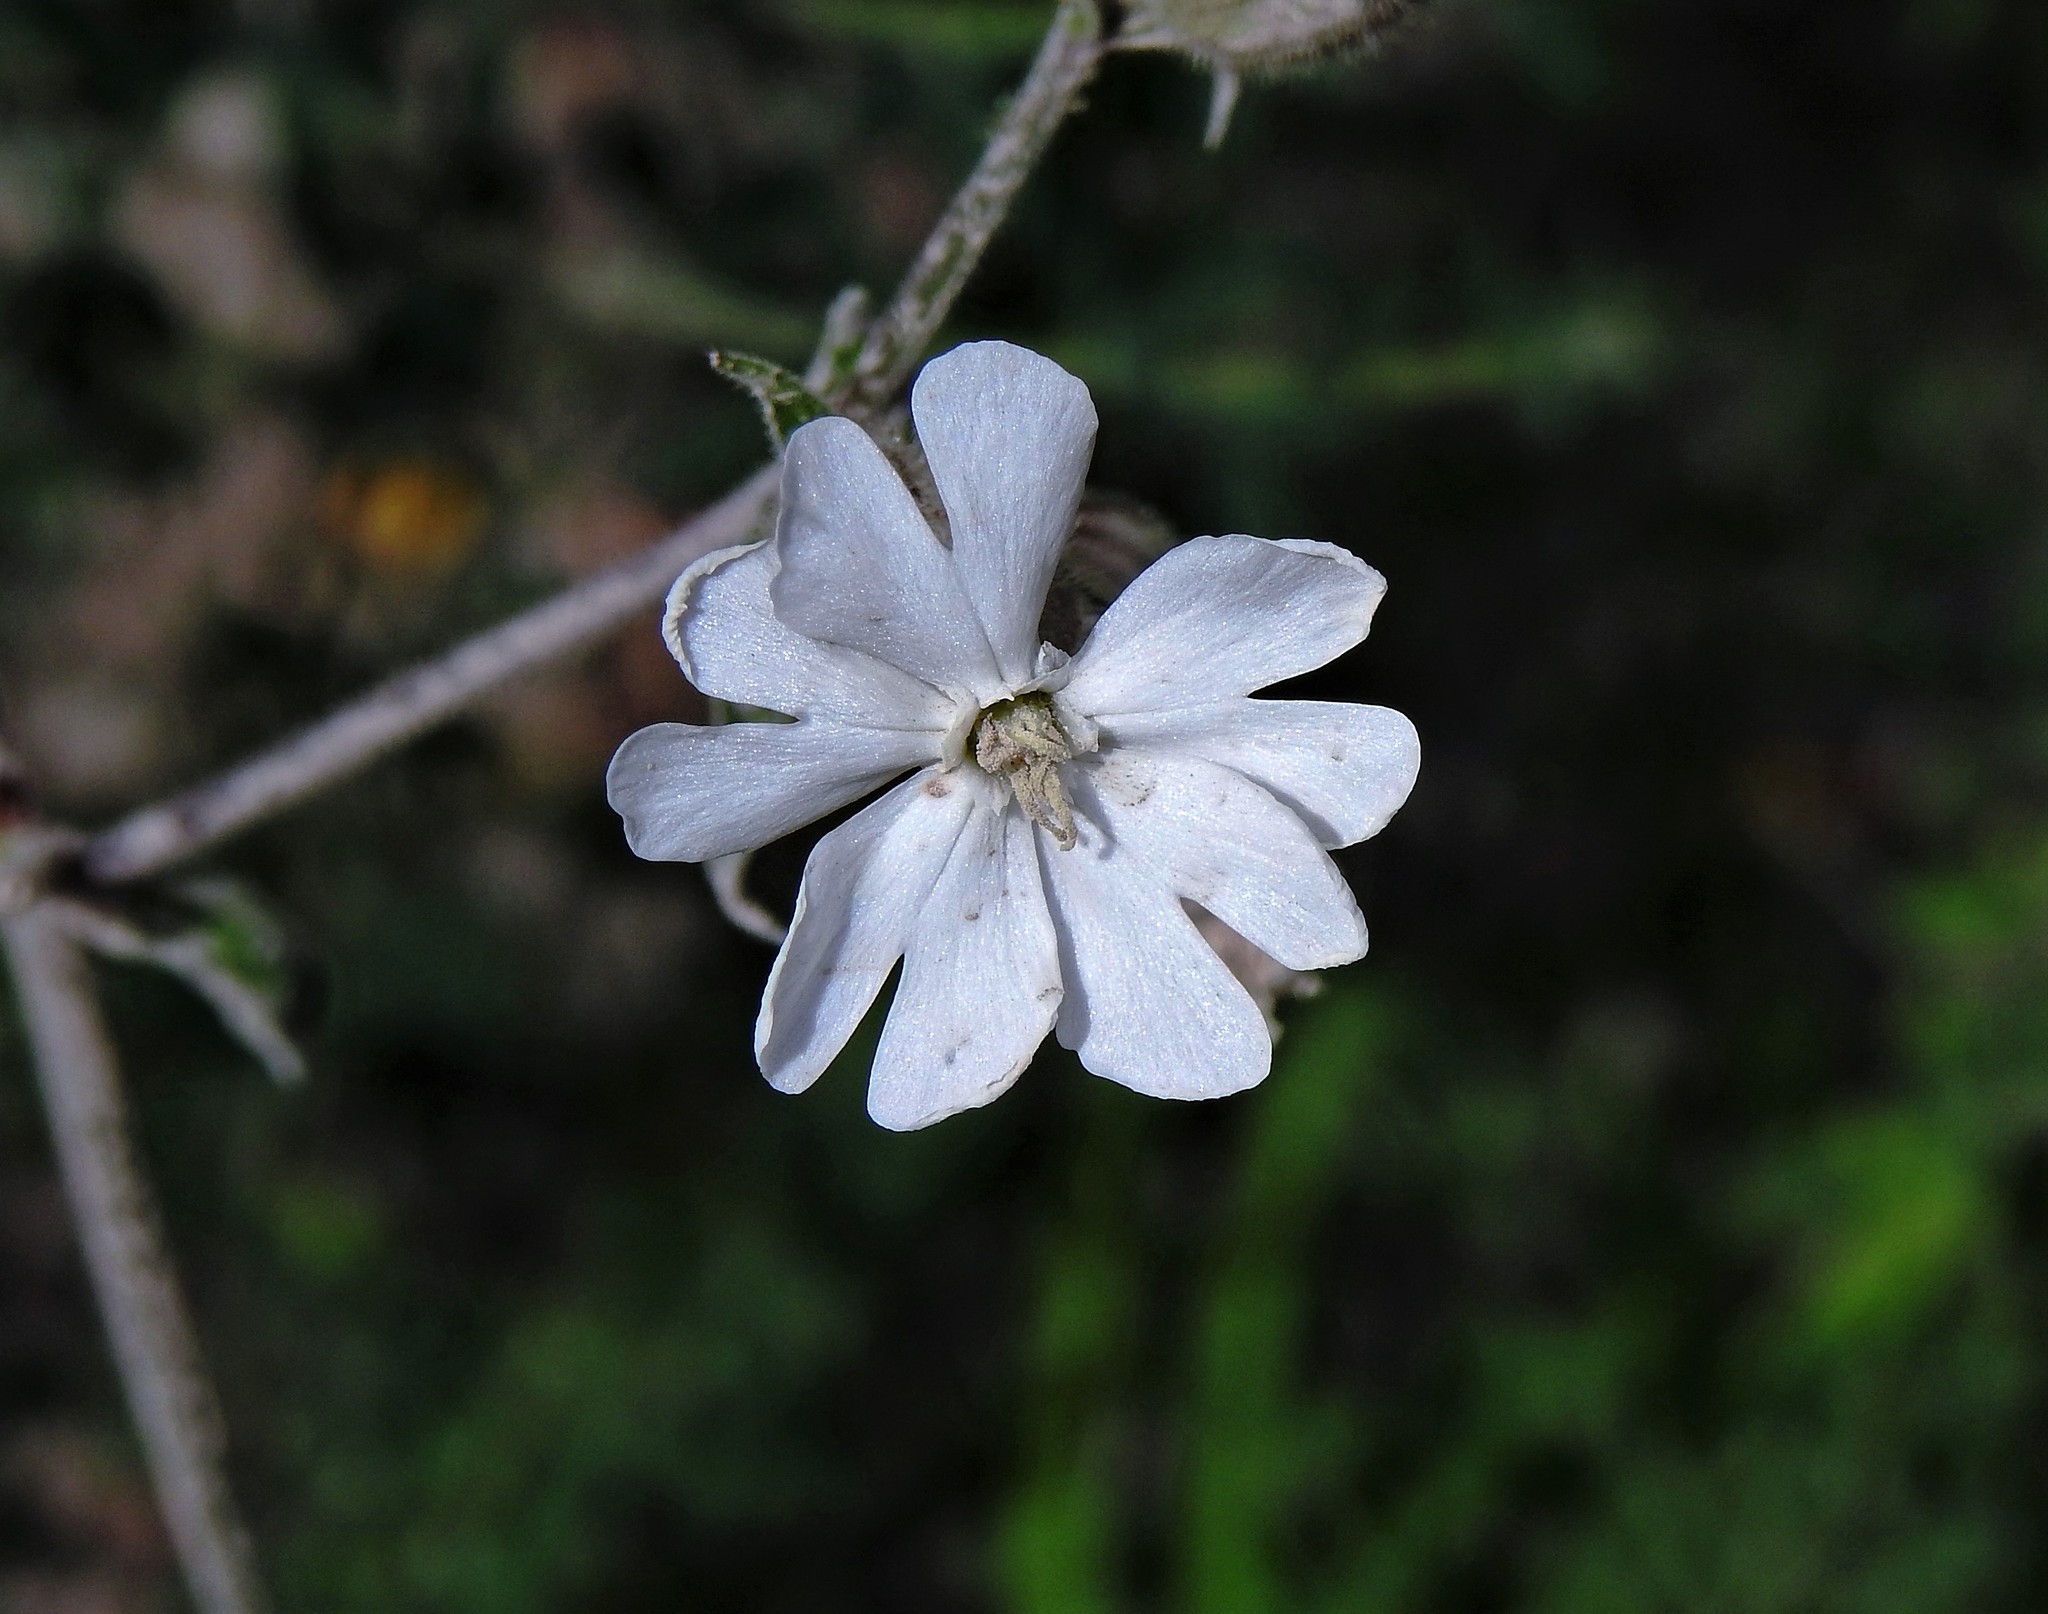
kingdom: Plantae
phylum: Tracheophyta
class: Magnoliopsida
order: Caryophyllales
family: Caryophyllaceae
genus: Silene
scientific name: Silene latifolia
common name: White campion
